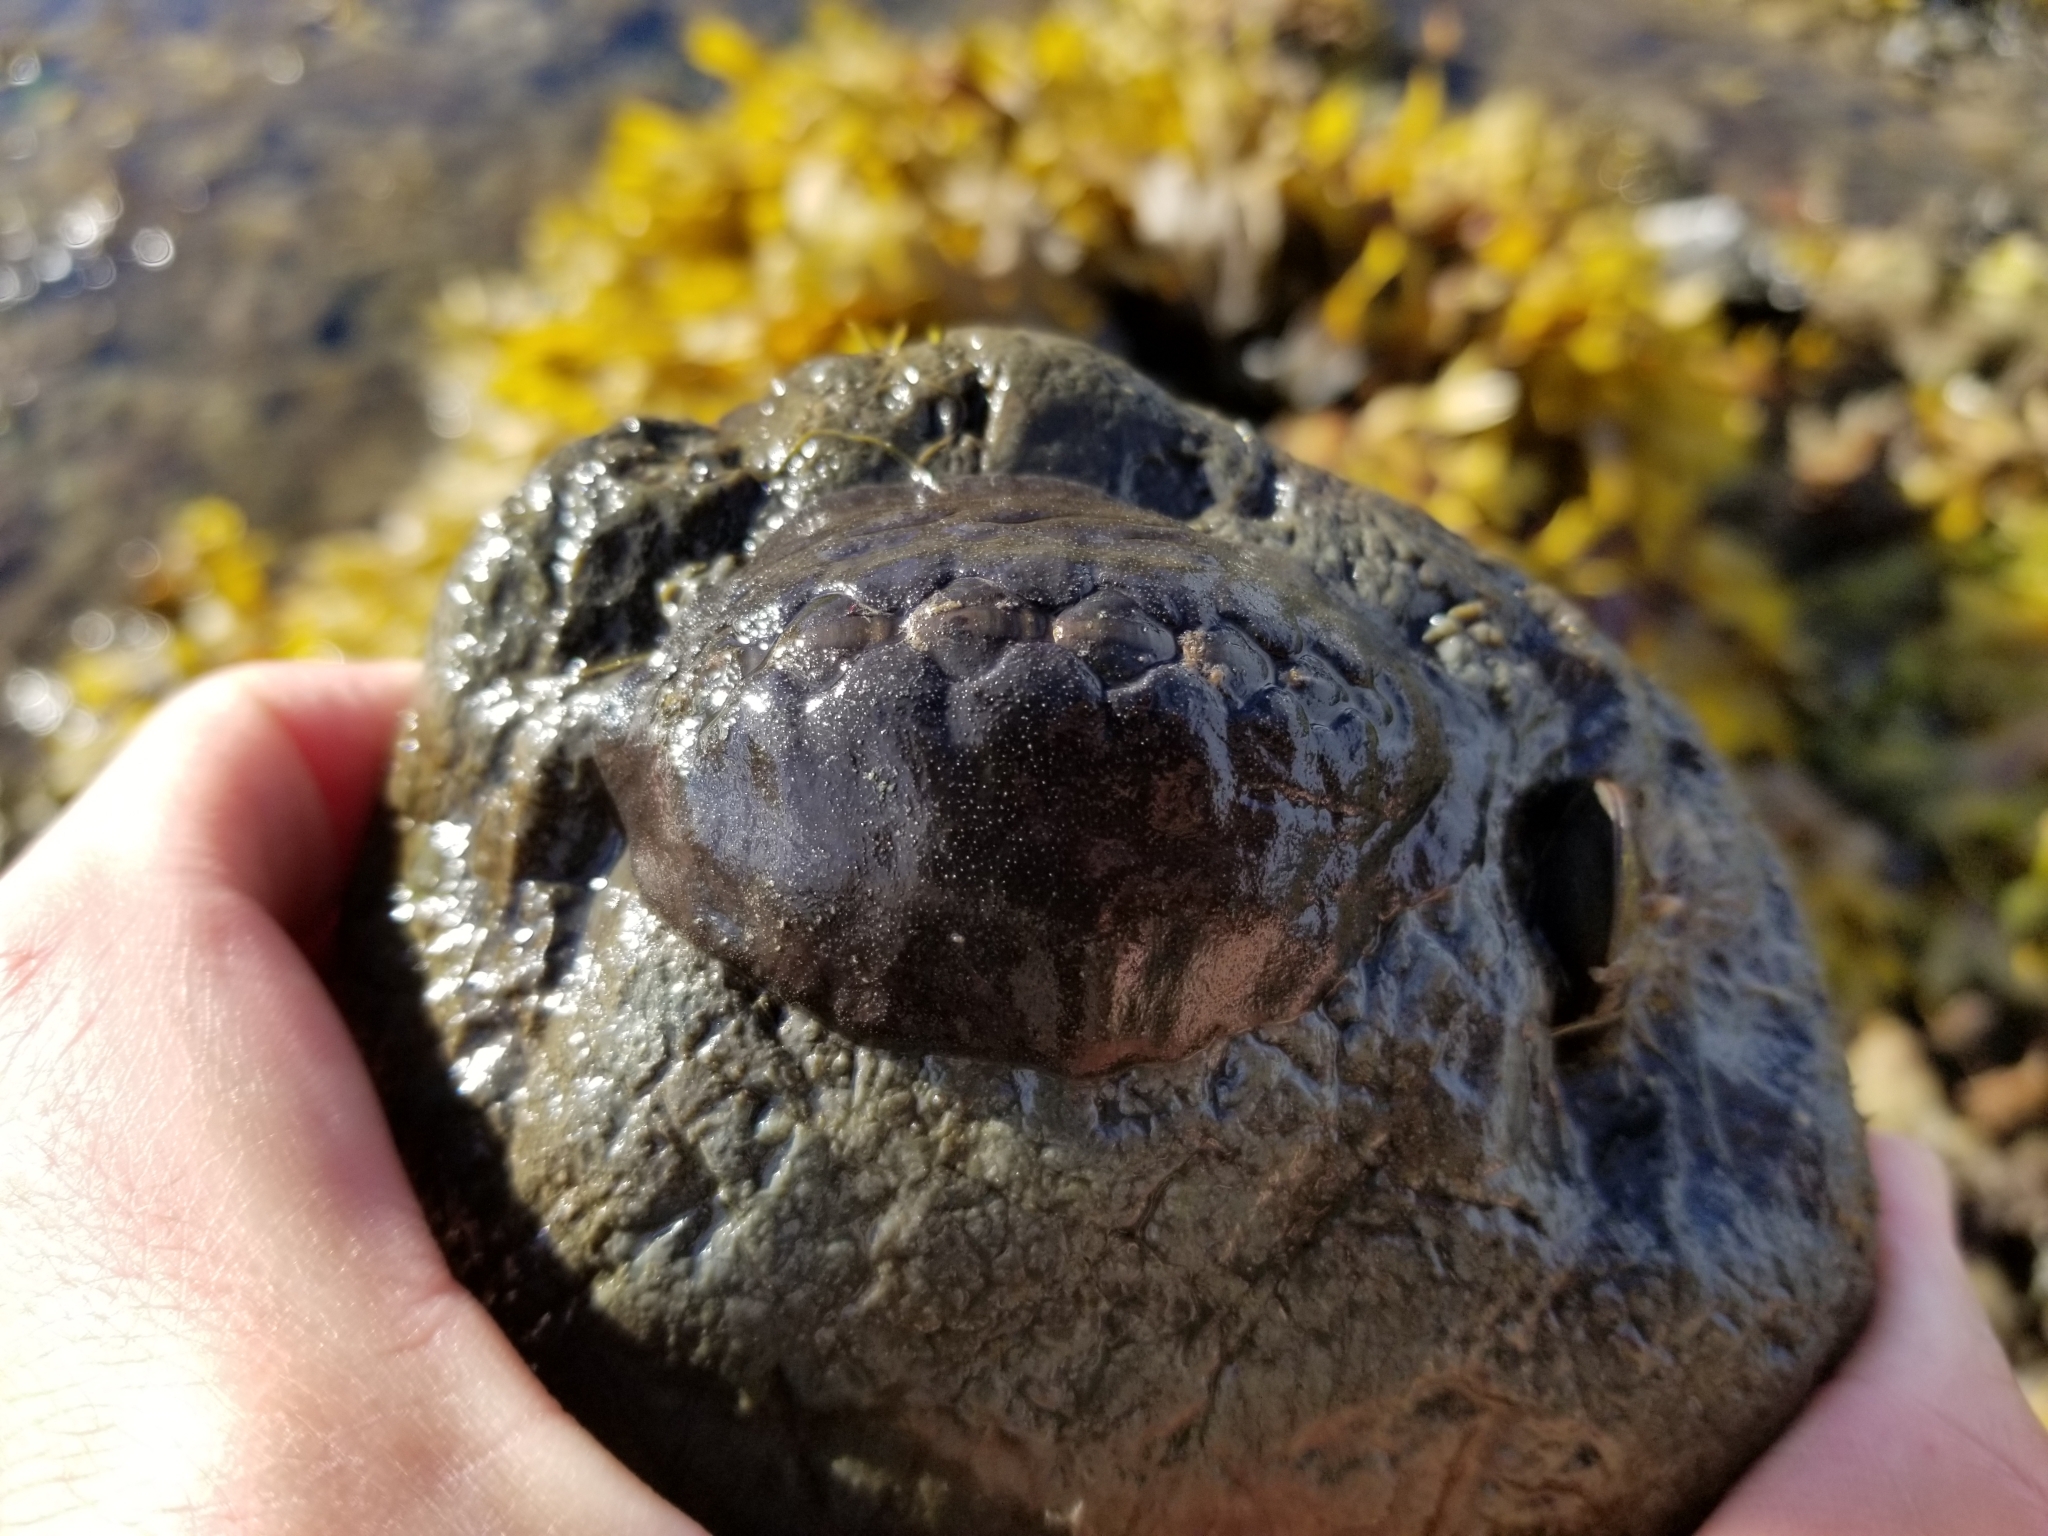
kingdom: Animalia
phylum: Mollusca
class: Polyplacophora
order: Chitonida
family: Mopaliidae
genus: Katharina
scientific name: Katharina tunicata
